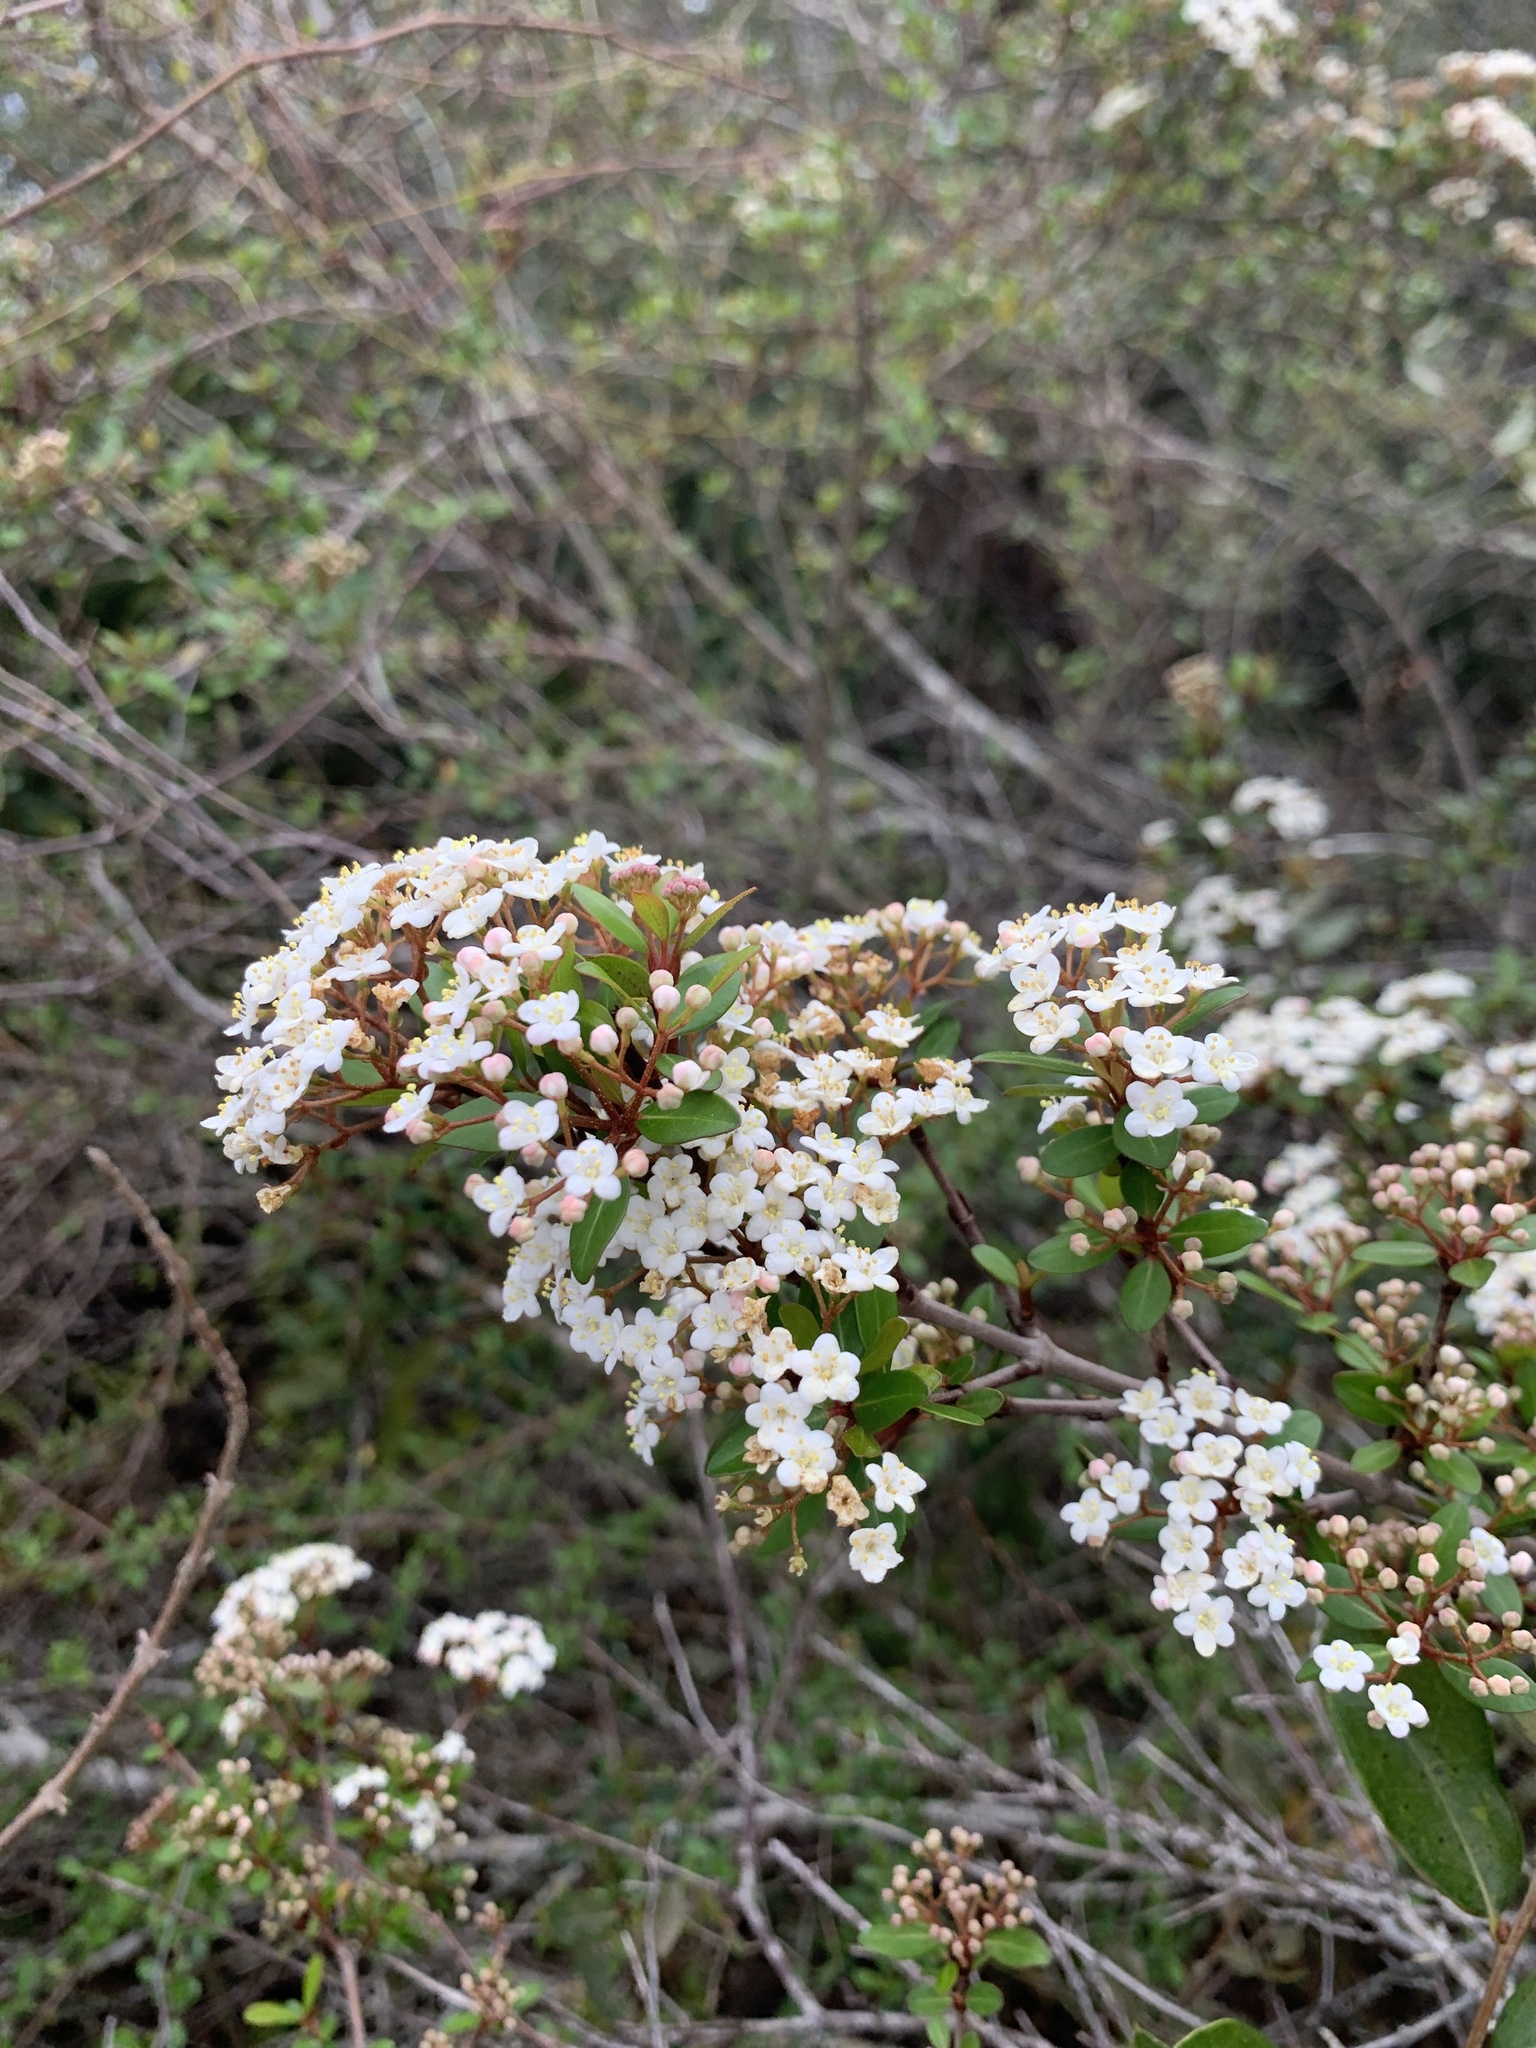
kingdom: Plantae
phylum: Tracheophyta
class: Magnoliopsida
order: Dipsacales
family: Viburnaceae
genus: Viburnum
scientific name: Viburnum obovatum
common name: Walter's viburnum
